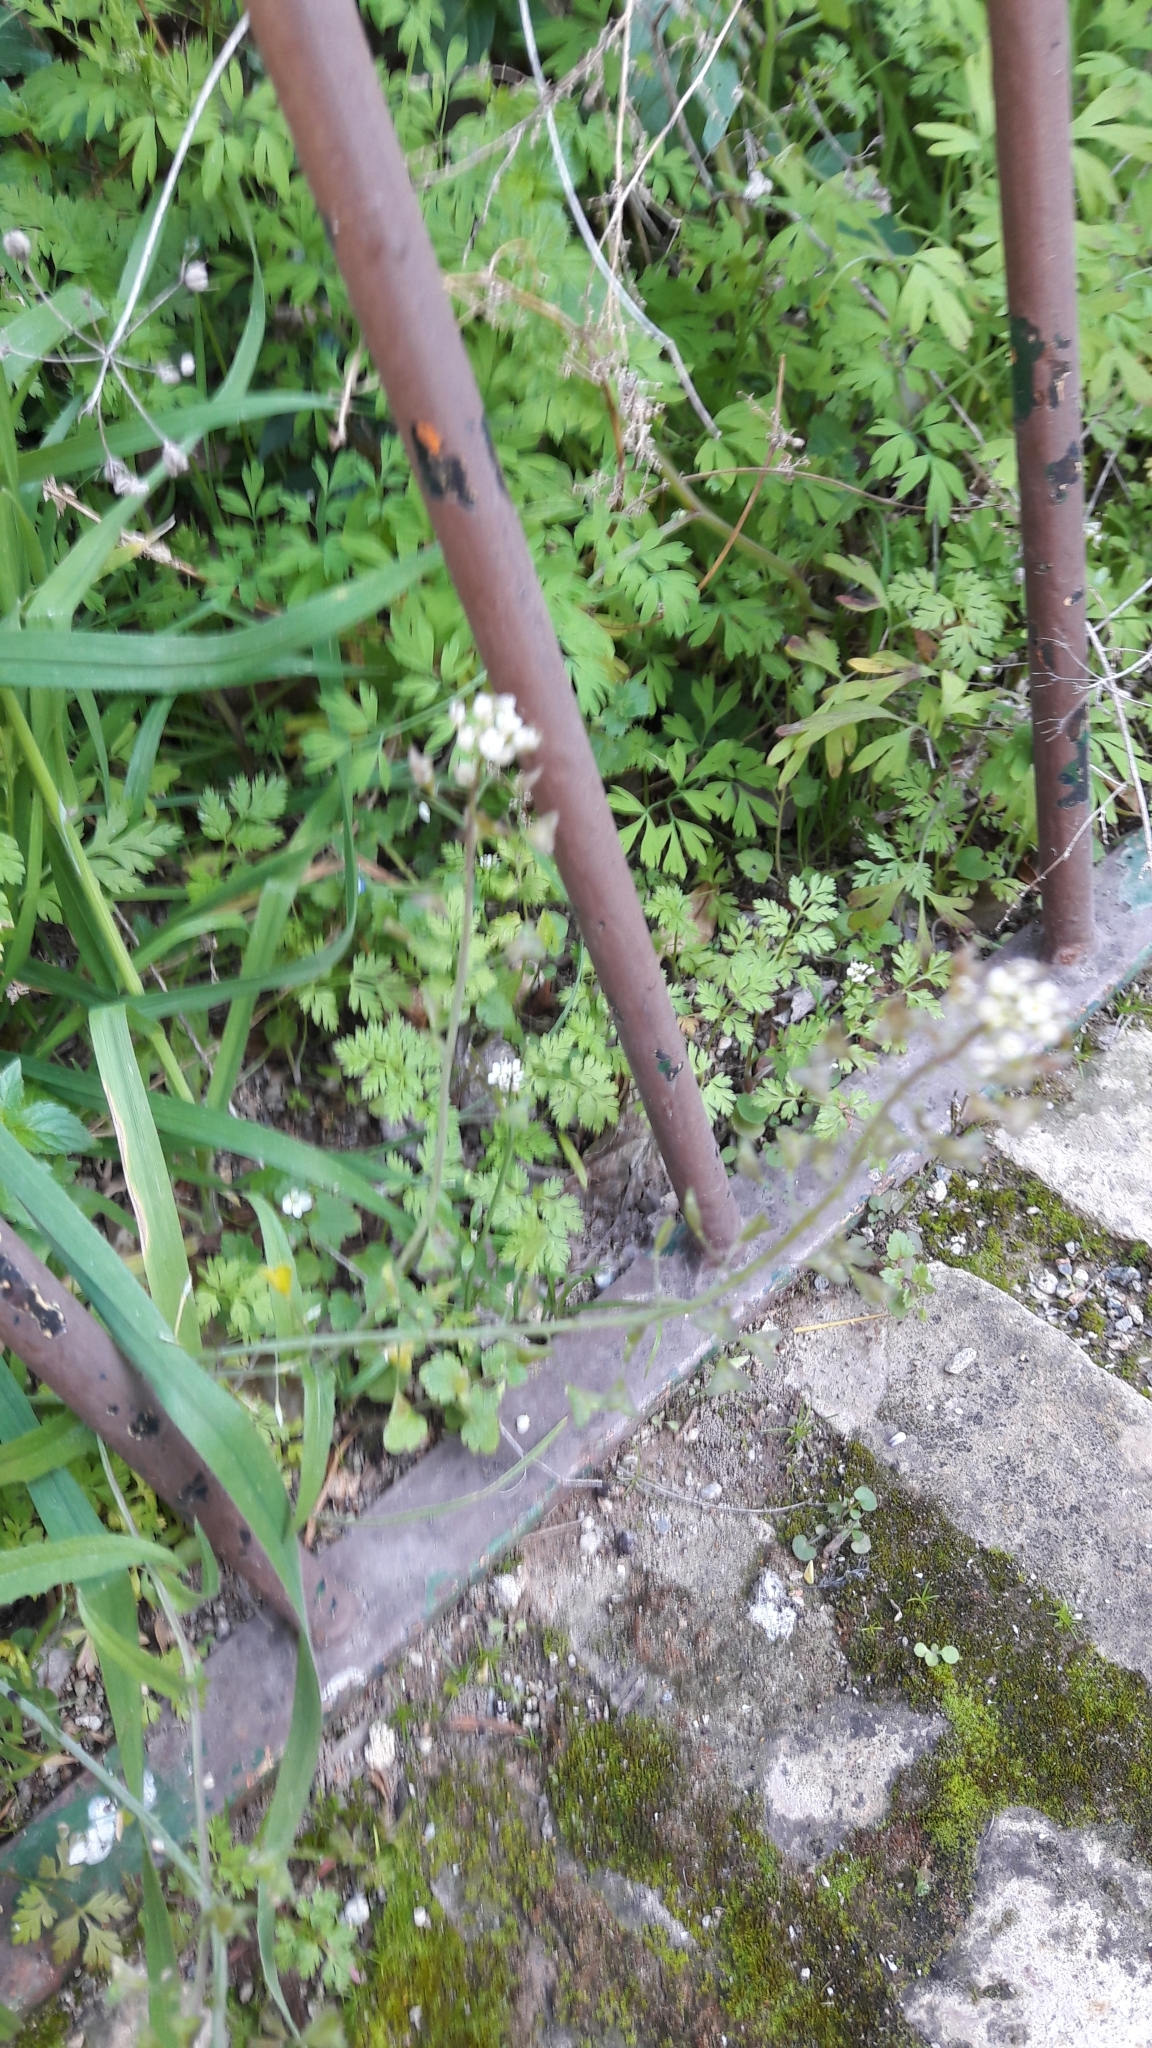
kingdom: Plantae
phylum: Tracheophyta
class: Magnoliopsida
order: Brassicales
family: Brassicaceae
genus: Capsella
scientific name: Capsella bursa-pastoris
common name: Shepherd's purse
